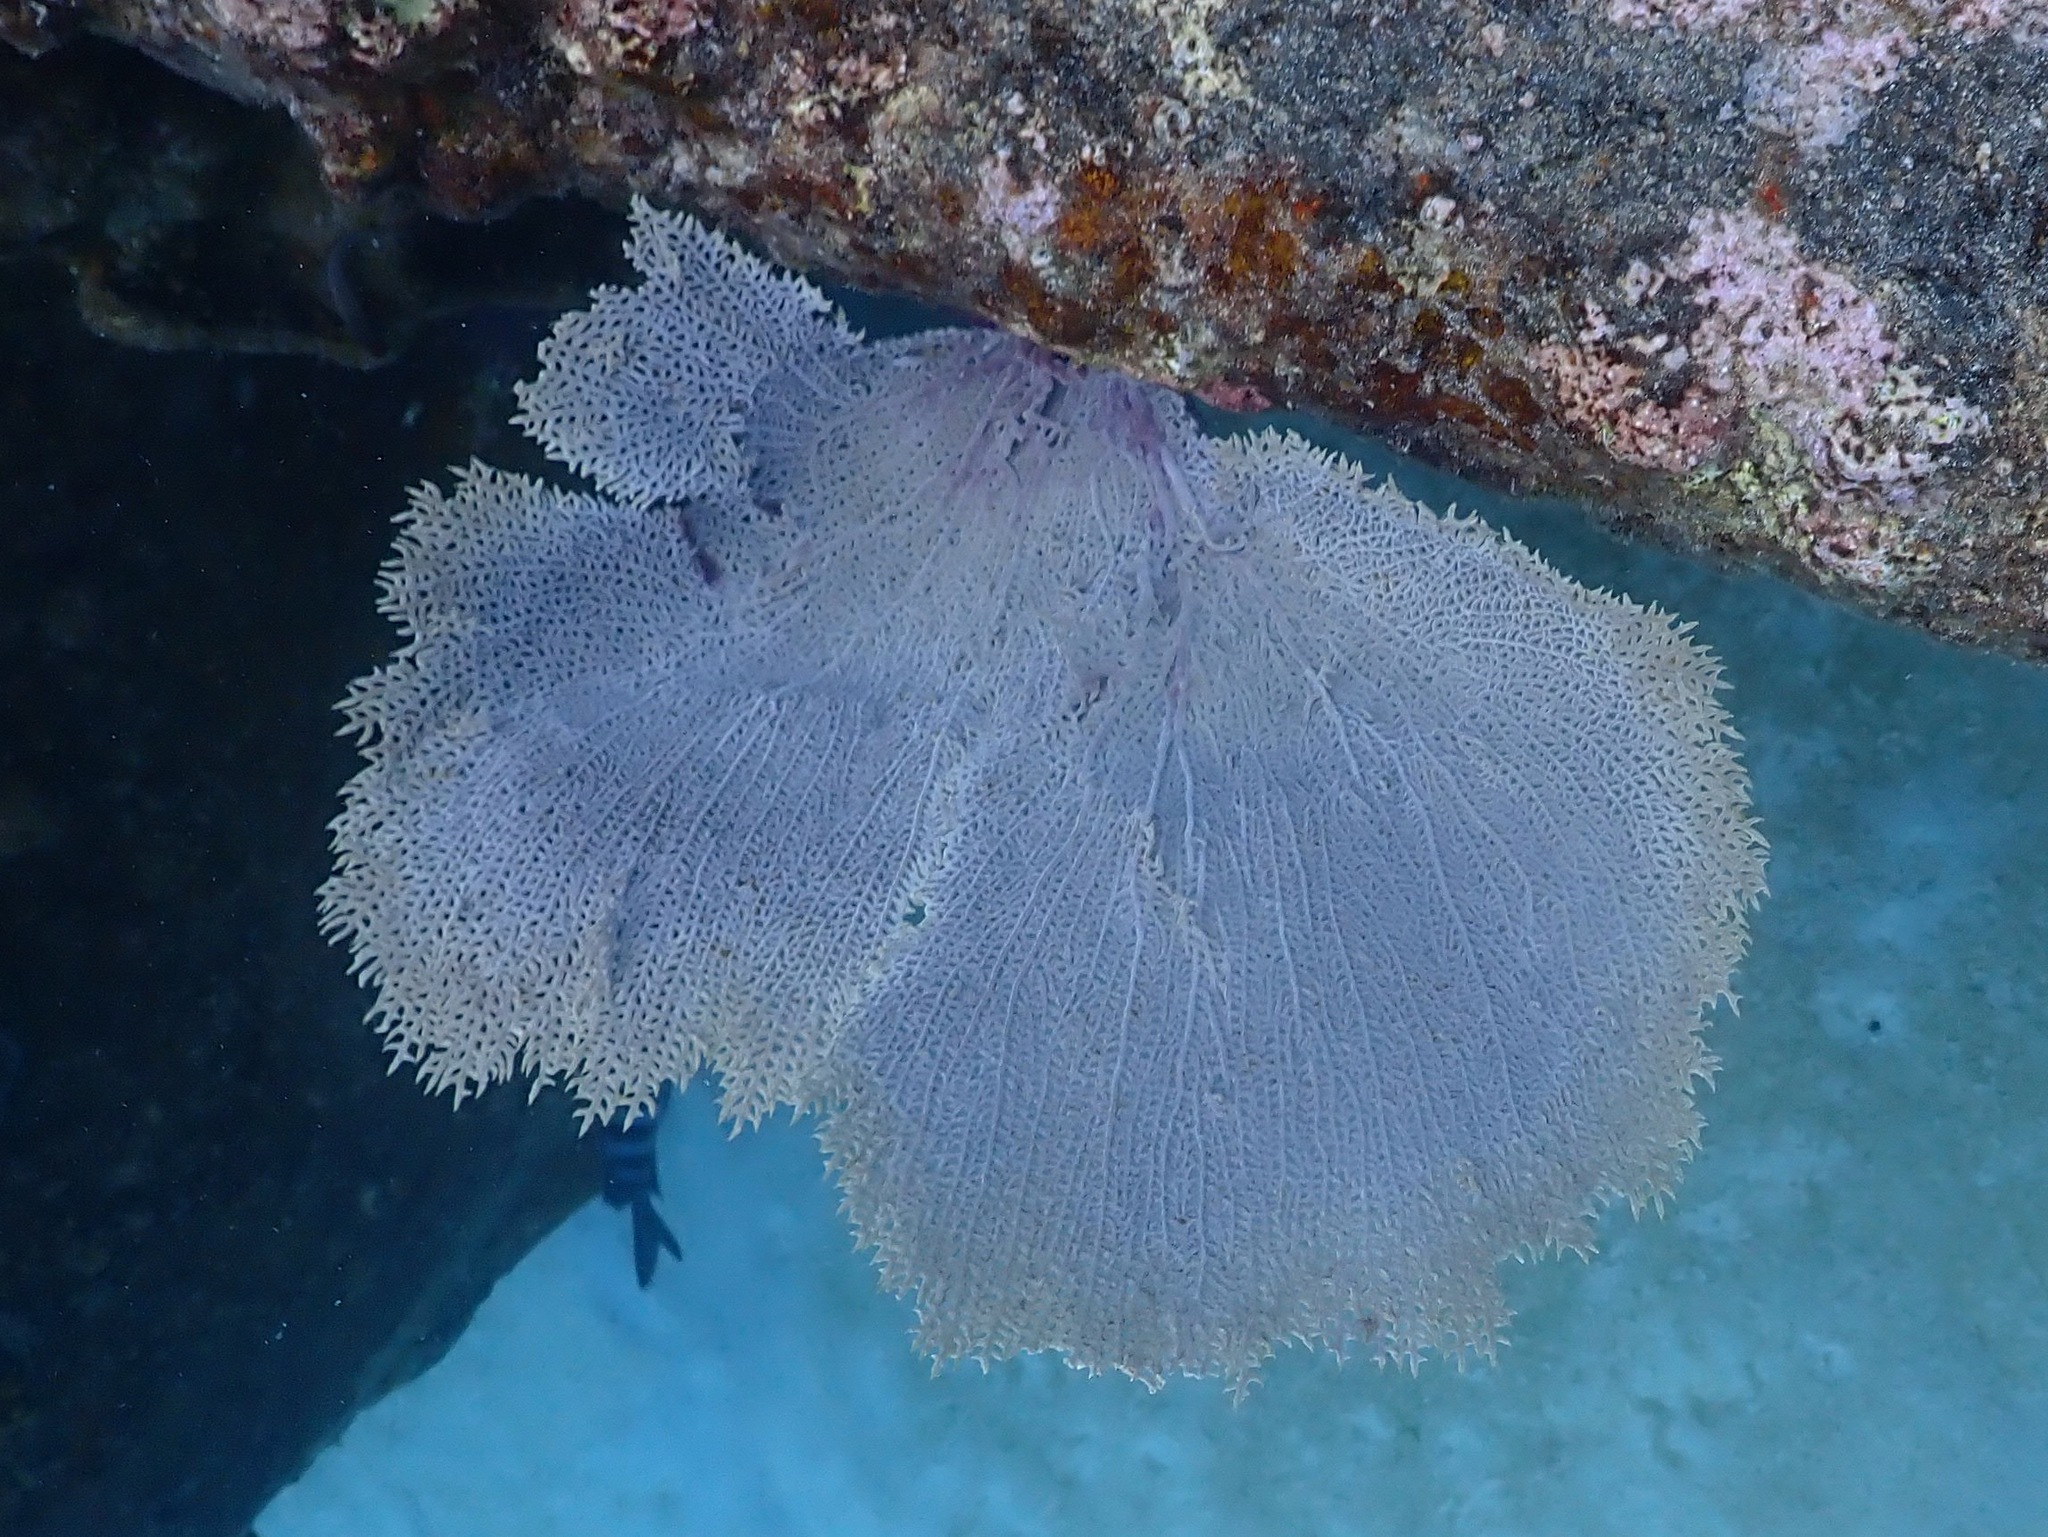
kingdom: Animalia
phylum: Cnidaria
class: Anthozoa
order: Malacalcyonacea
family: Gorgoniidae
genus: Gorgonia
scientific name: Gorgonia ventalina
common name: Common sea fan
